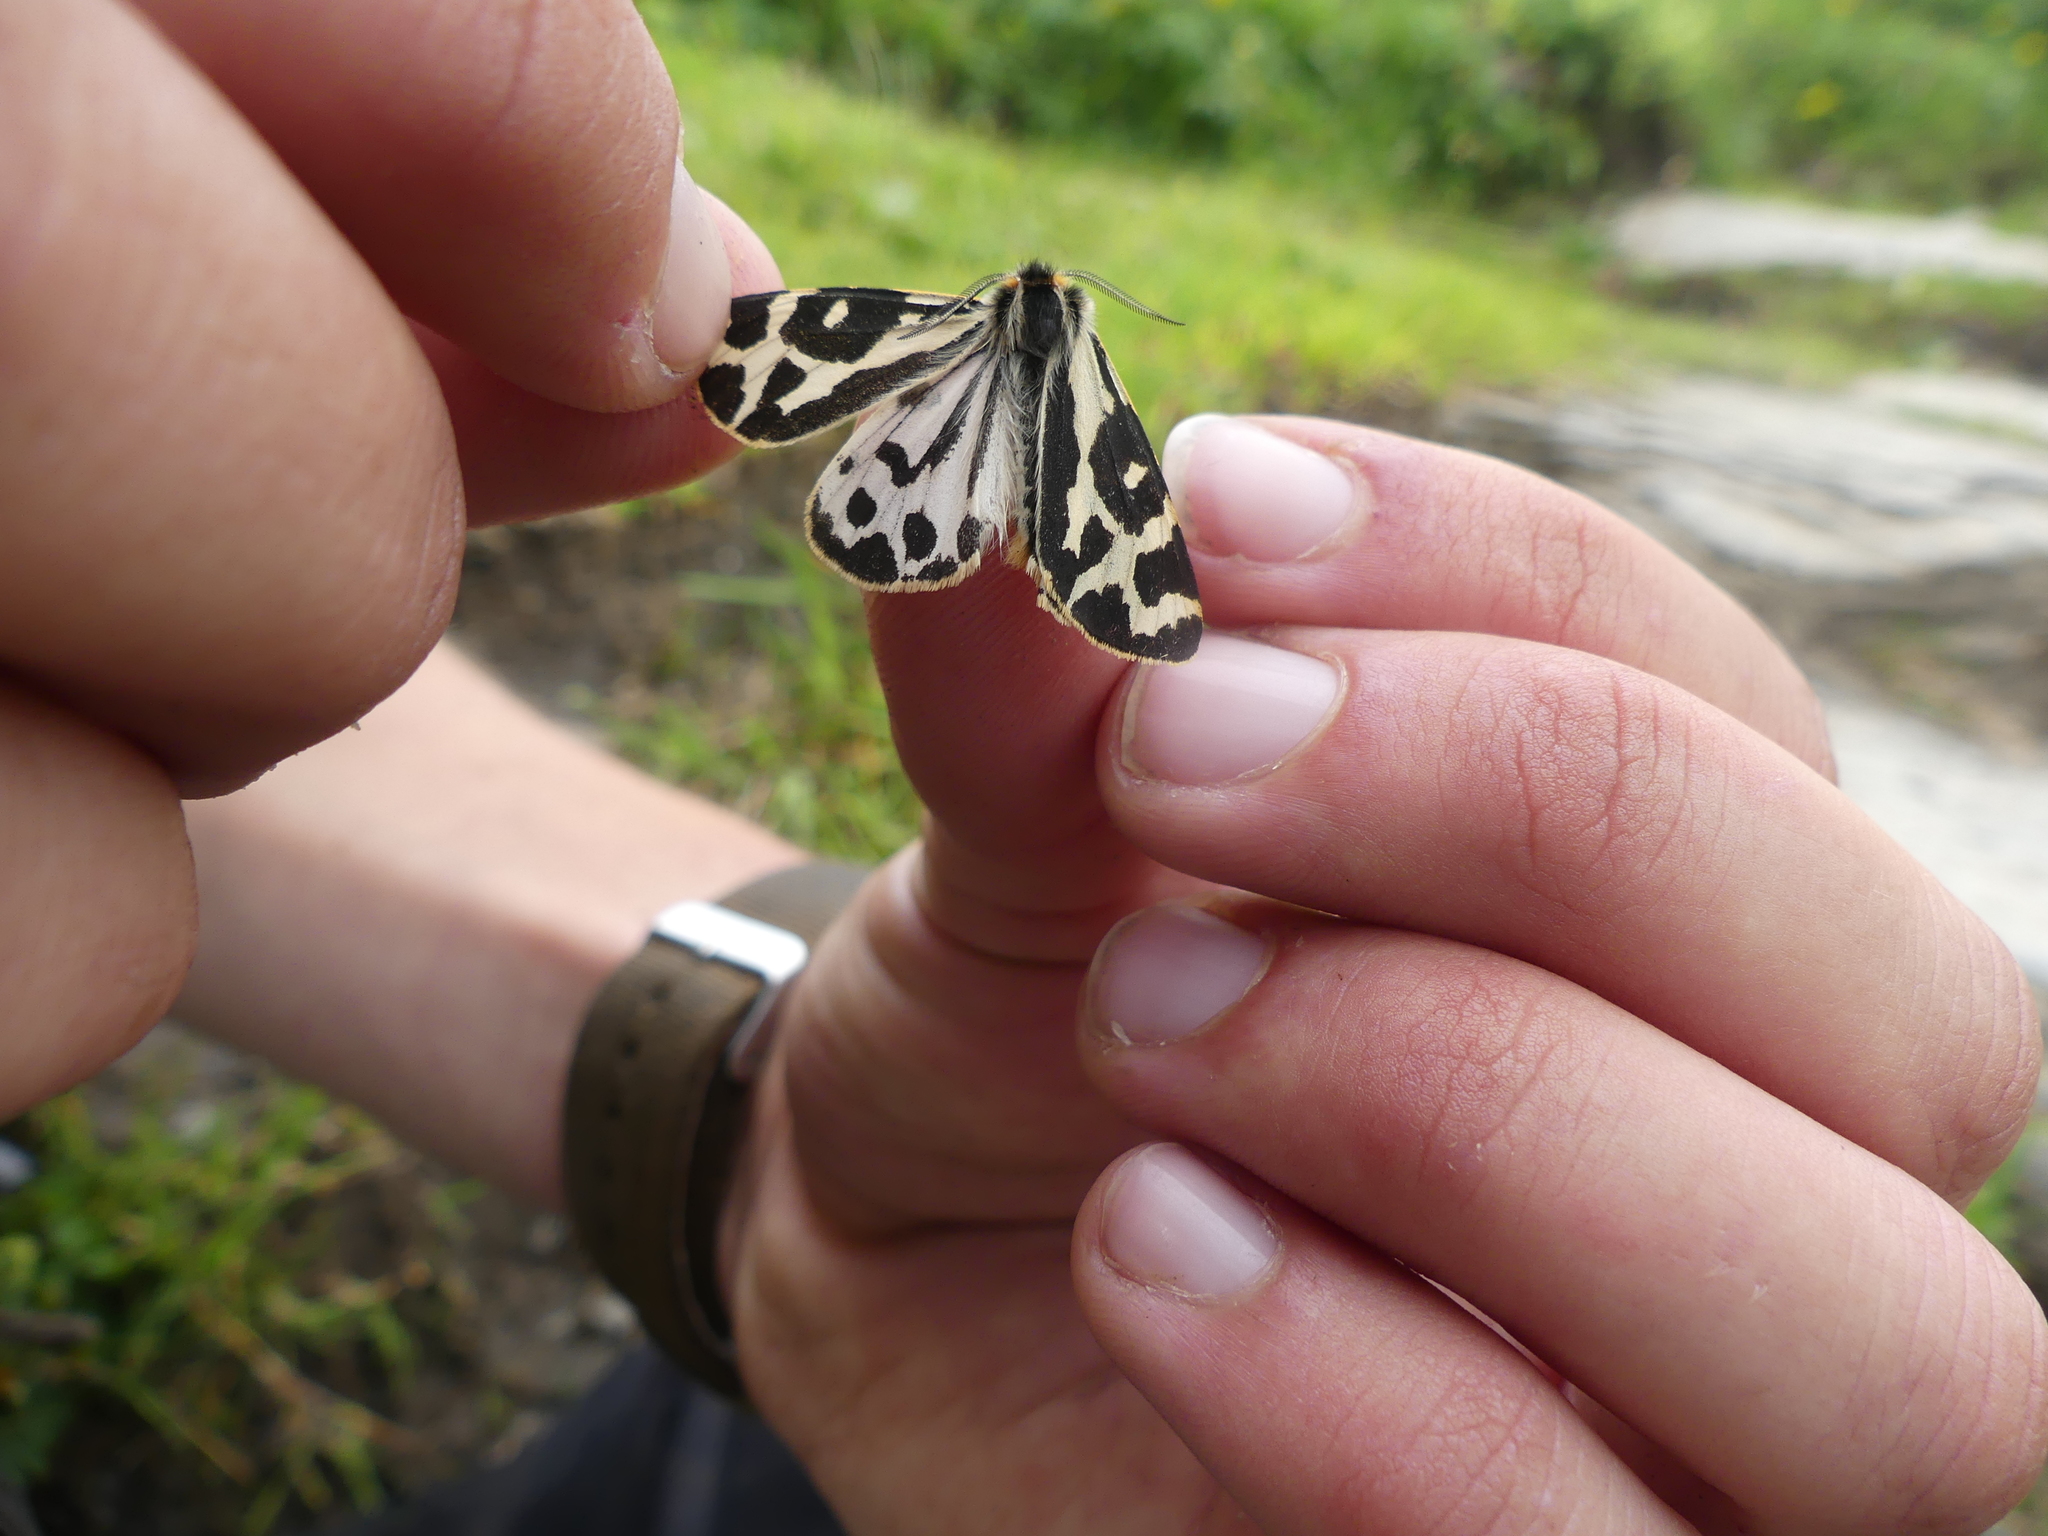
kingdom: Animalia
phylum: Arthropoda
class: Insecta
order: Lepidoptera
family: Erebidae
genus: Parasemia
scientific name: Parasemia plantaginis
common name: Wood tiger
